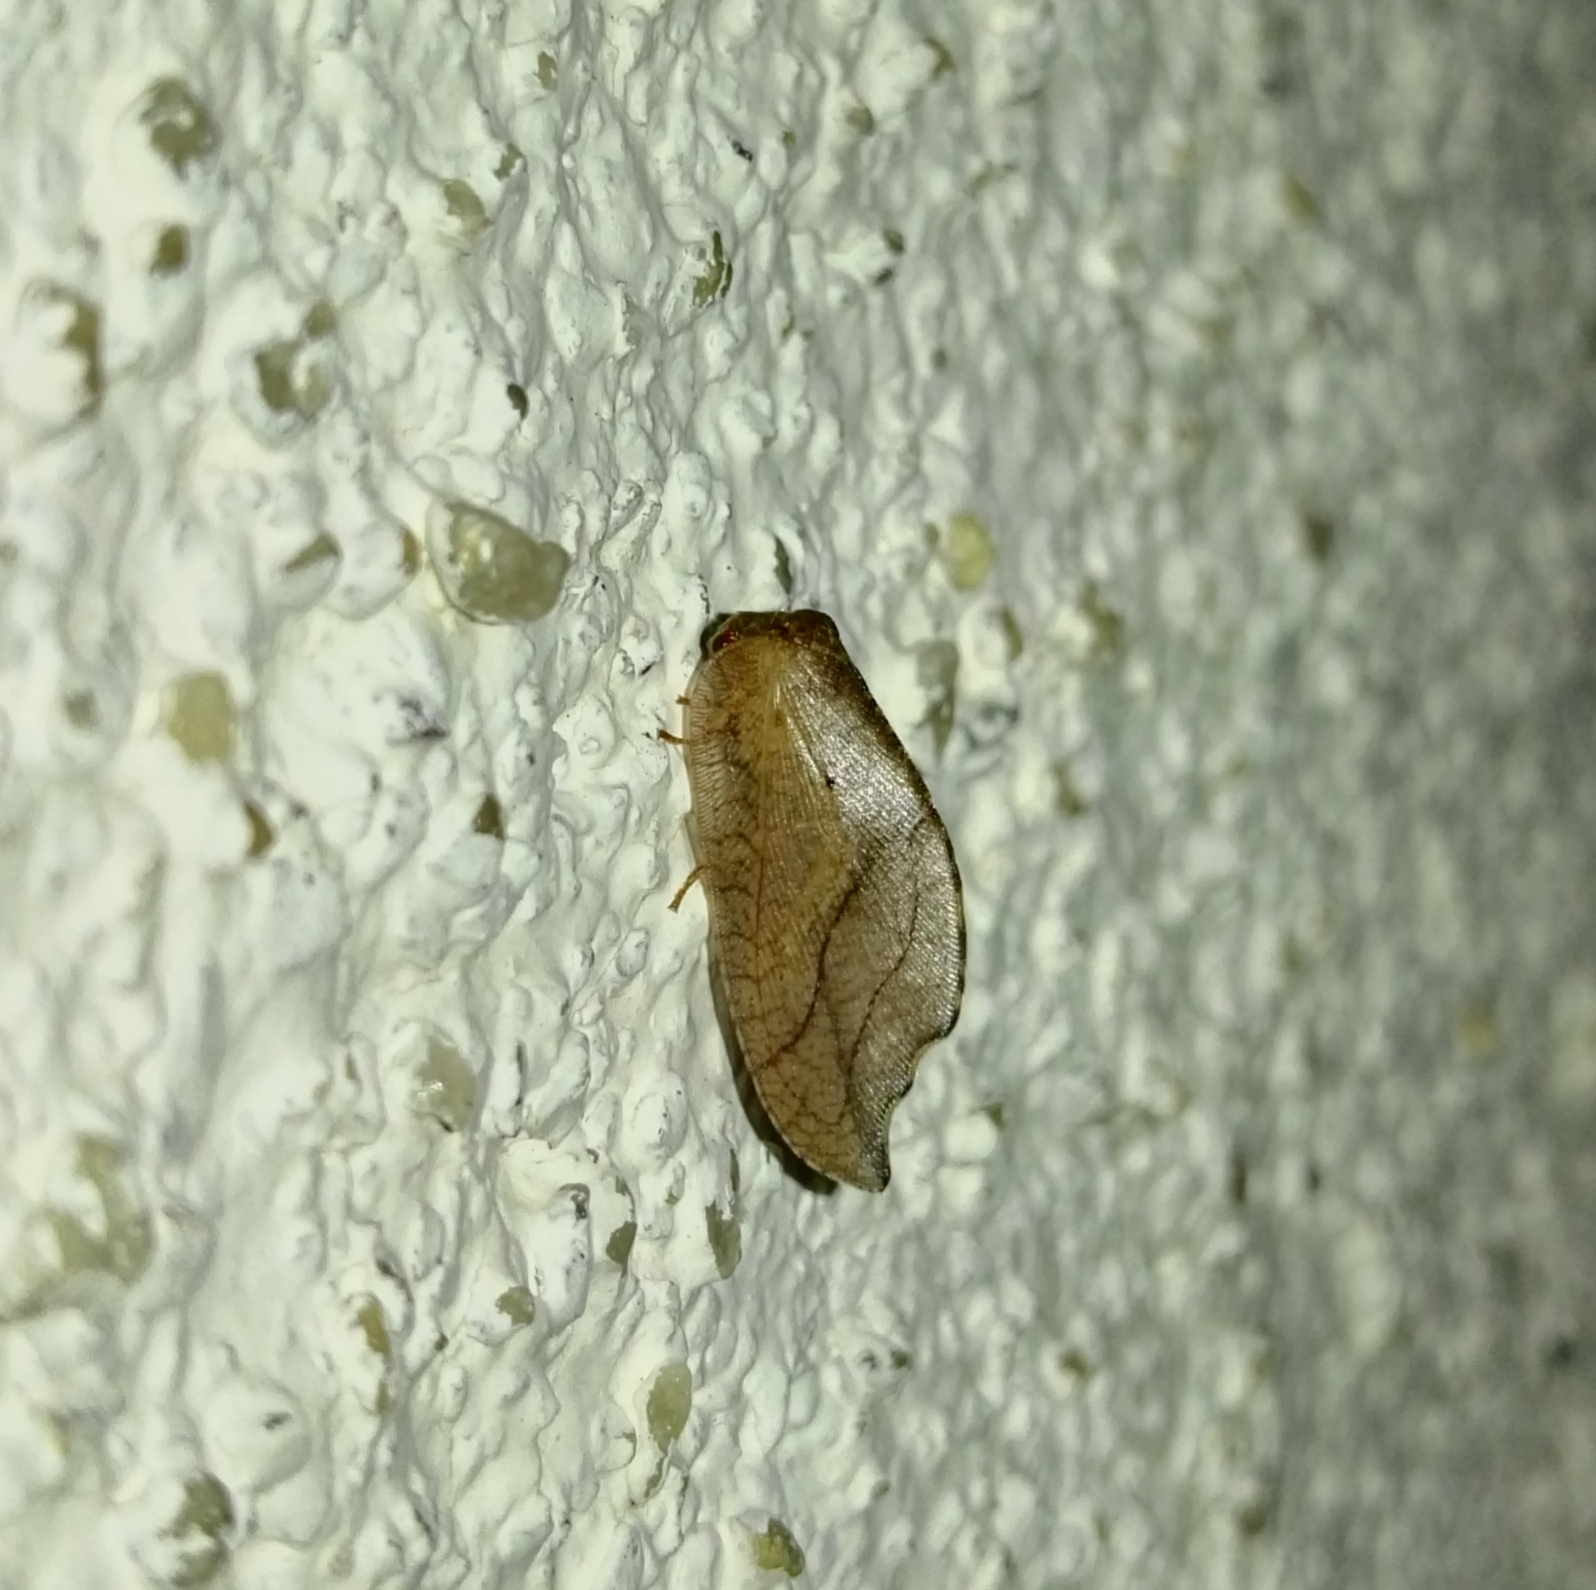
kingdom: Animalia
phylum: Arthropoda
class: Insecta
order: Neuroptera
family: Hemerobiidae
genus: Drepanepteryx
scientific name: Drepanepteryx phalaenoides
